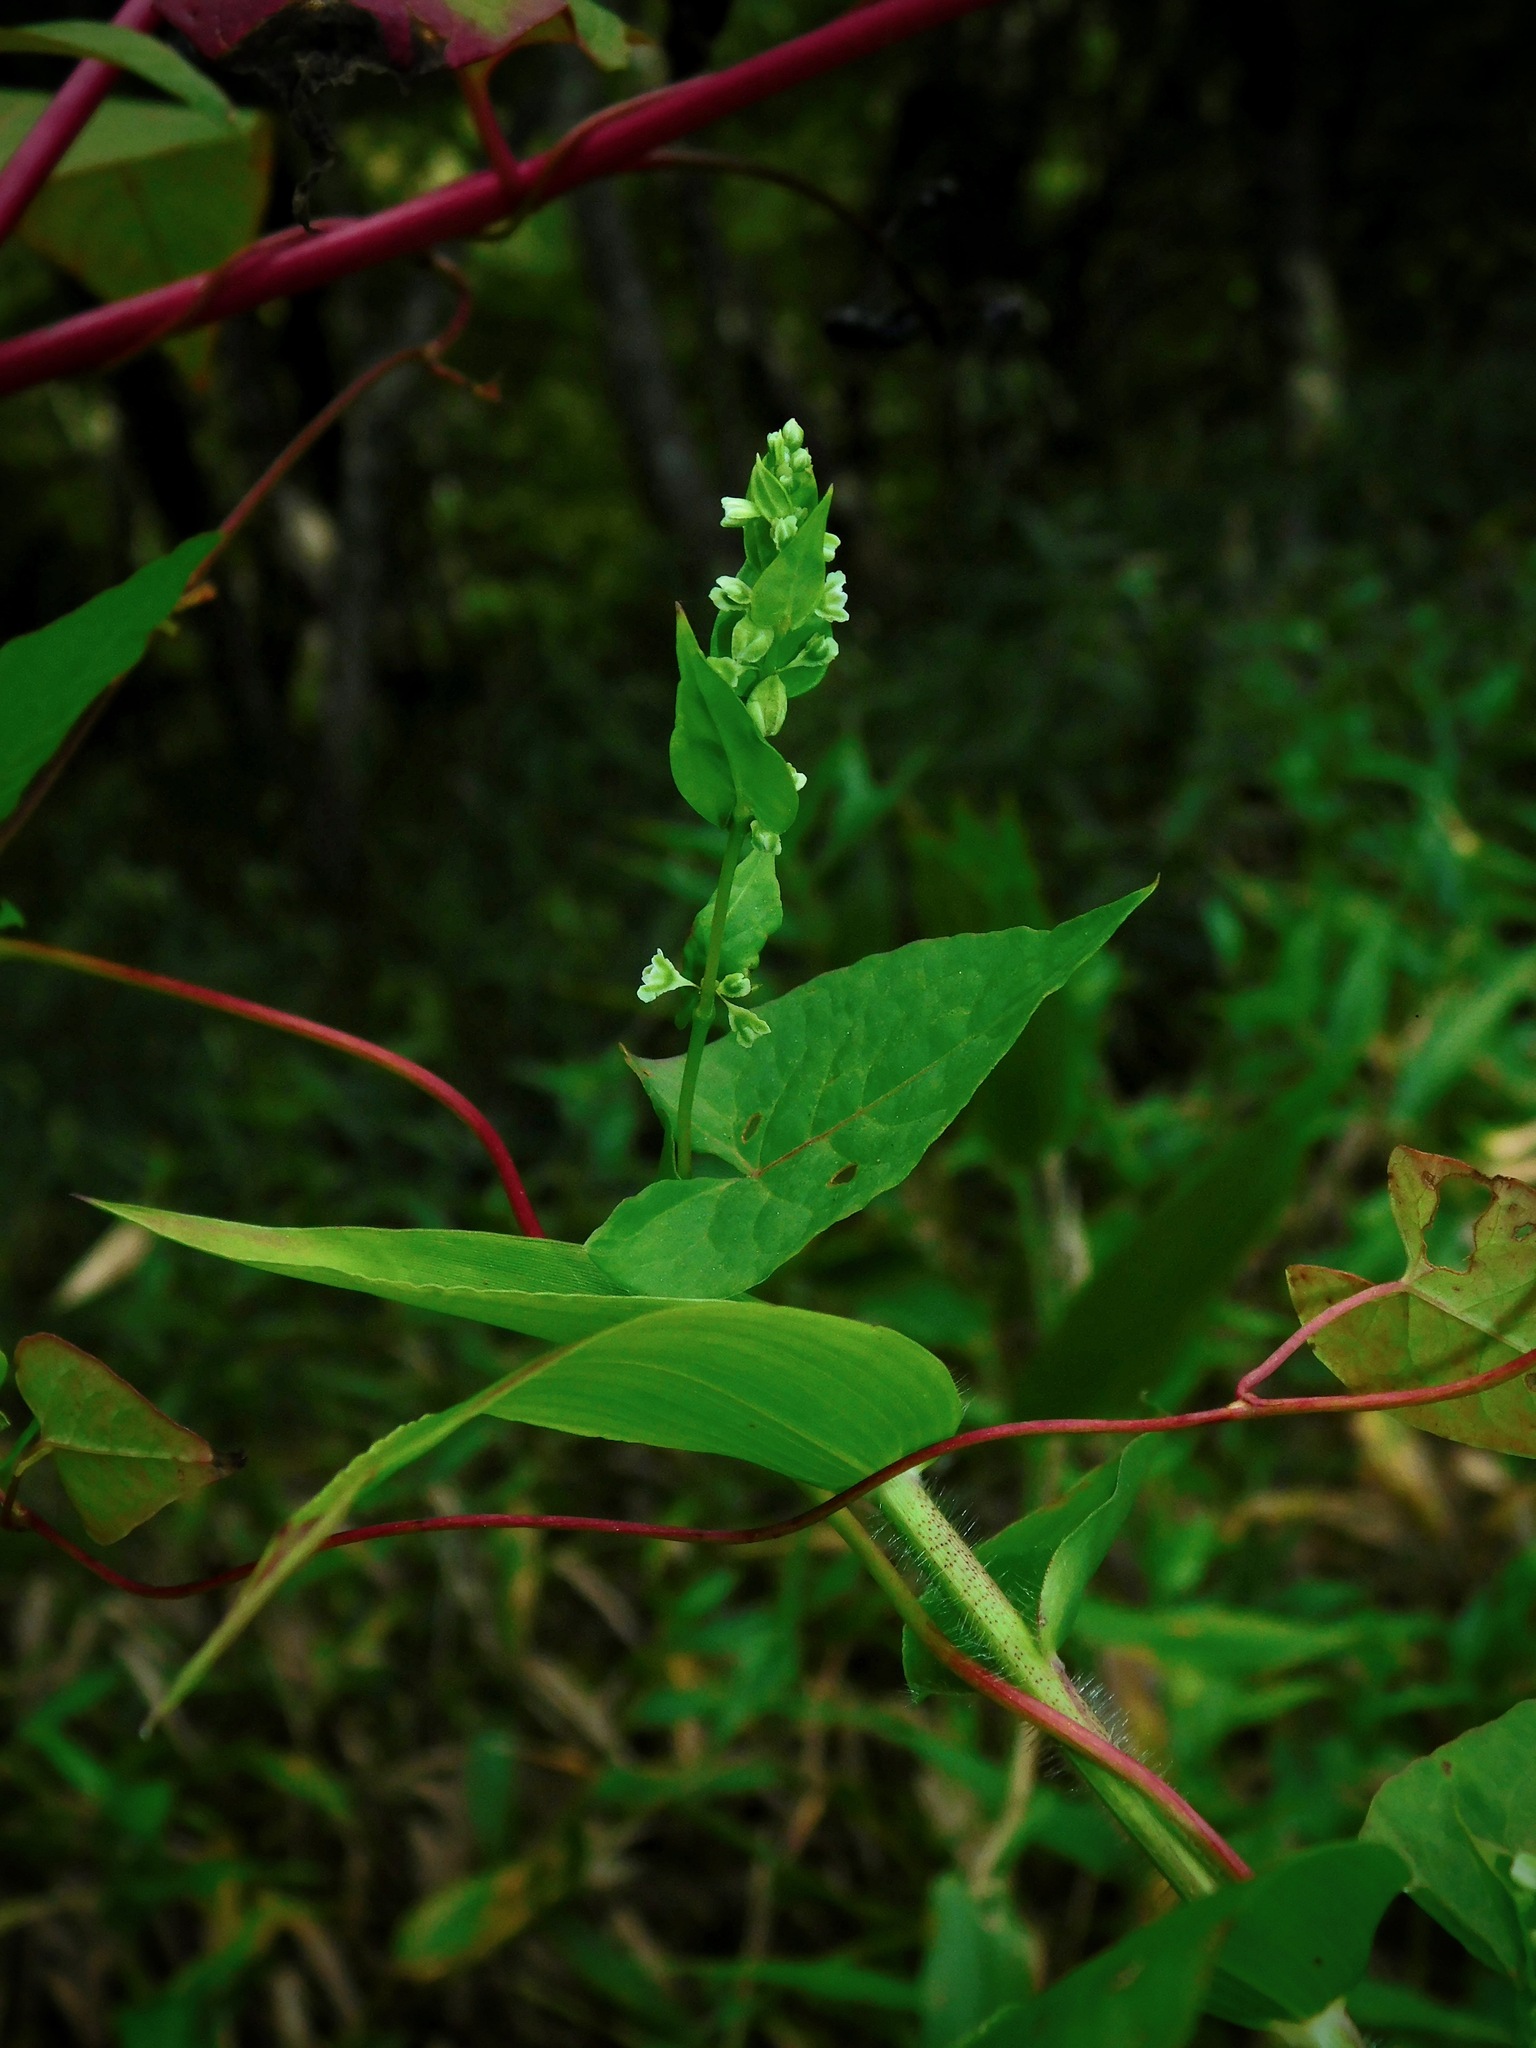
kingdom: Plantae
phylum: Tracheophyta
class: Magnoliopsida
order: Caryophyllales
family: Polygonaceae
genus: Fallopia
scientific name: Fallopia scandens
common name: Climbing false buckwheat
